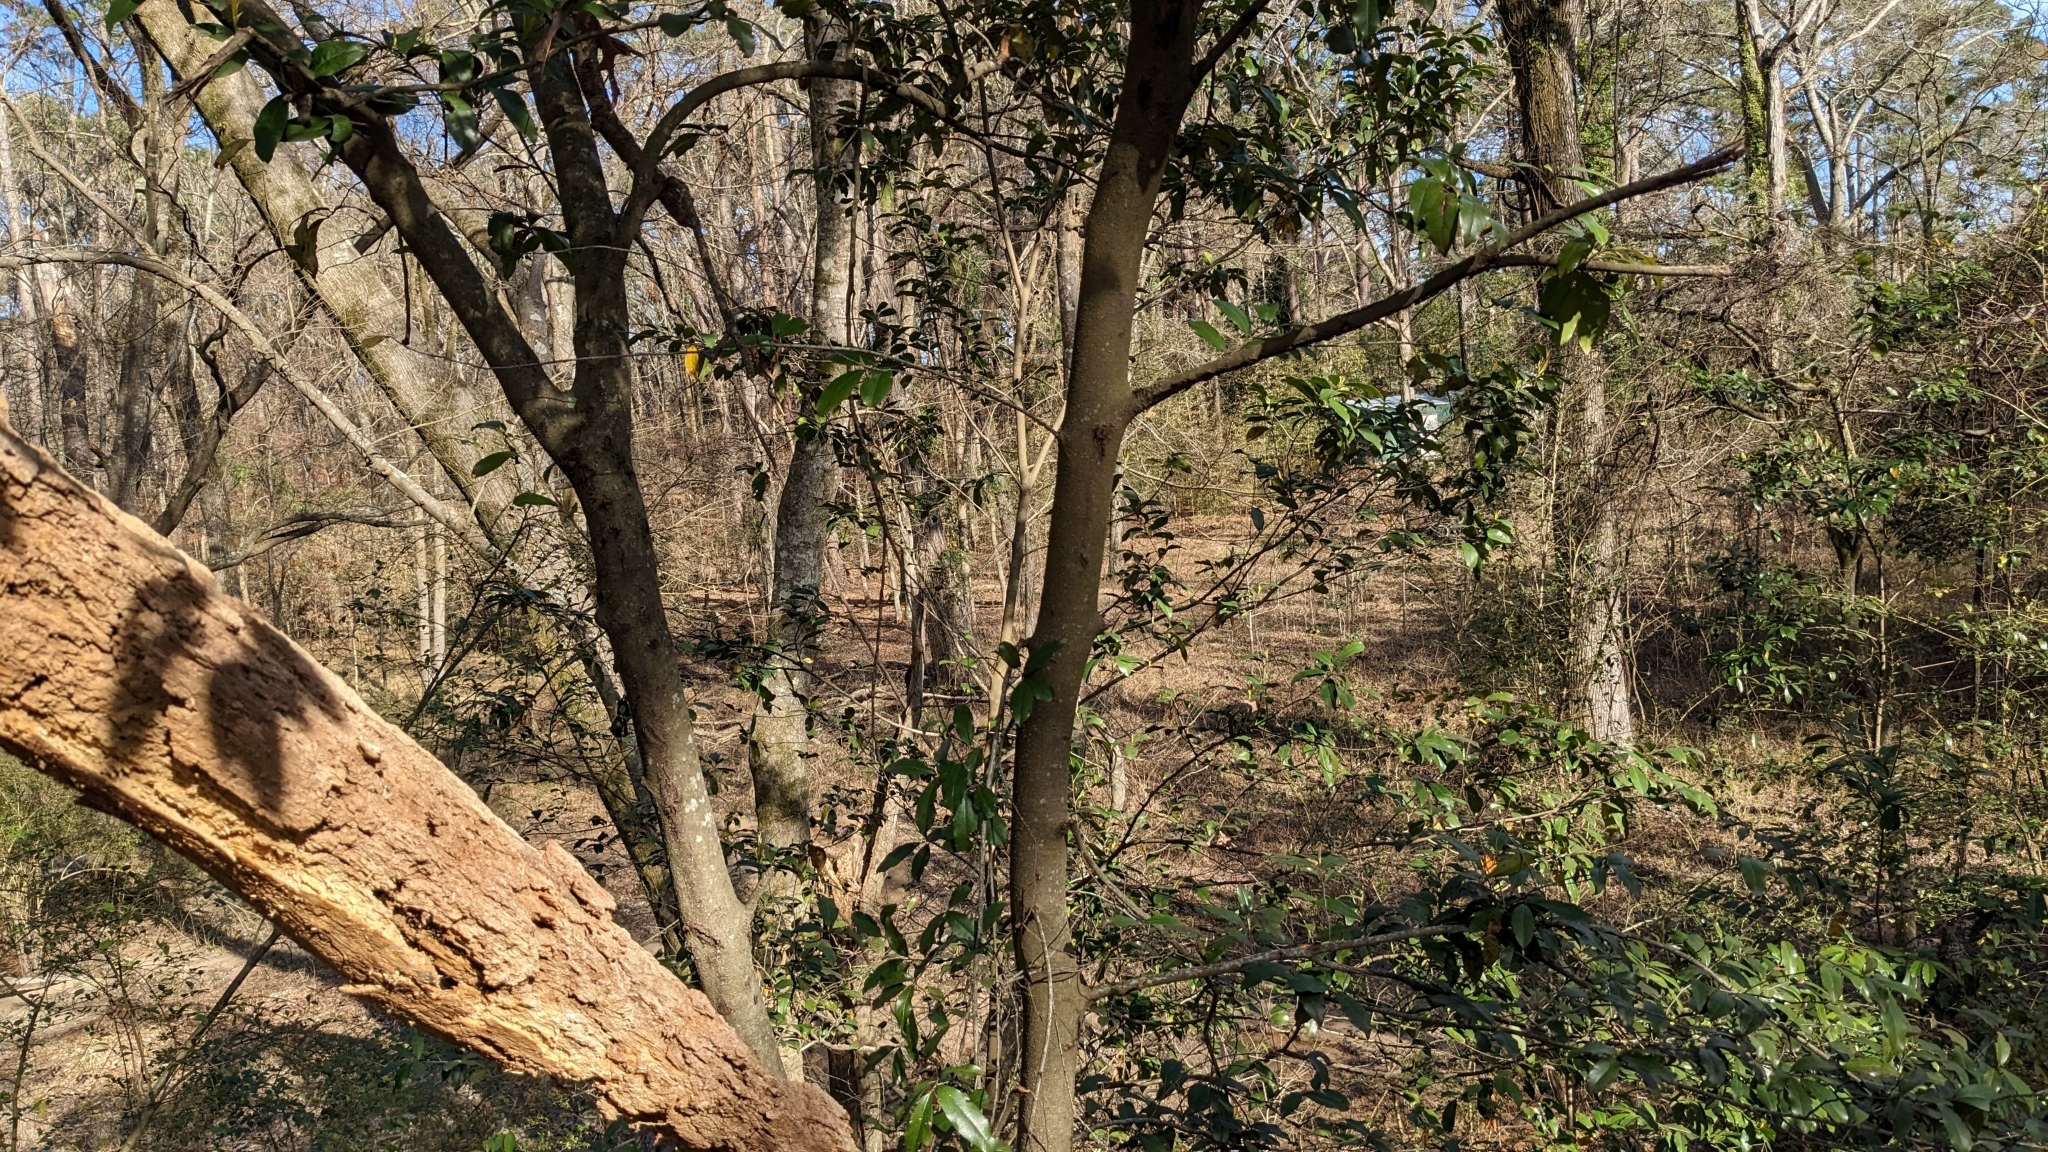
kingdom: Plantae
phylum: Tracheophyta
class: Magnoliopsida
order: Rosales
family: Rosaceae
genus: Prunus
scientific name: Prunus caroliniana
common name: Carolina laurel cherry
